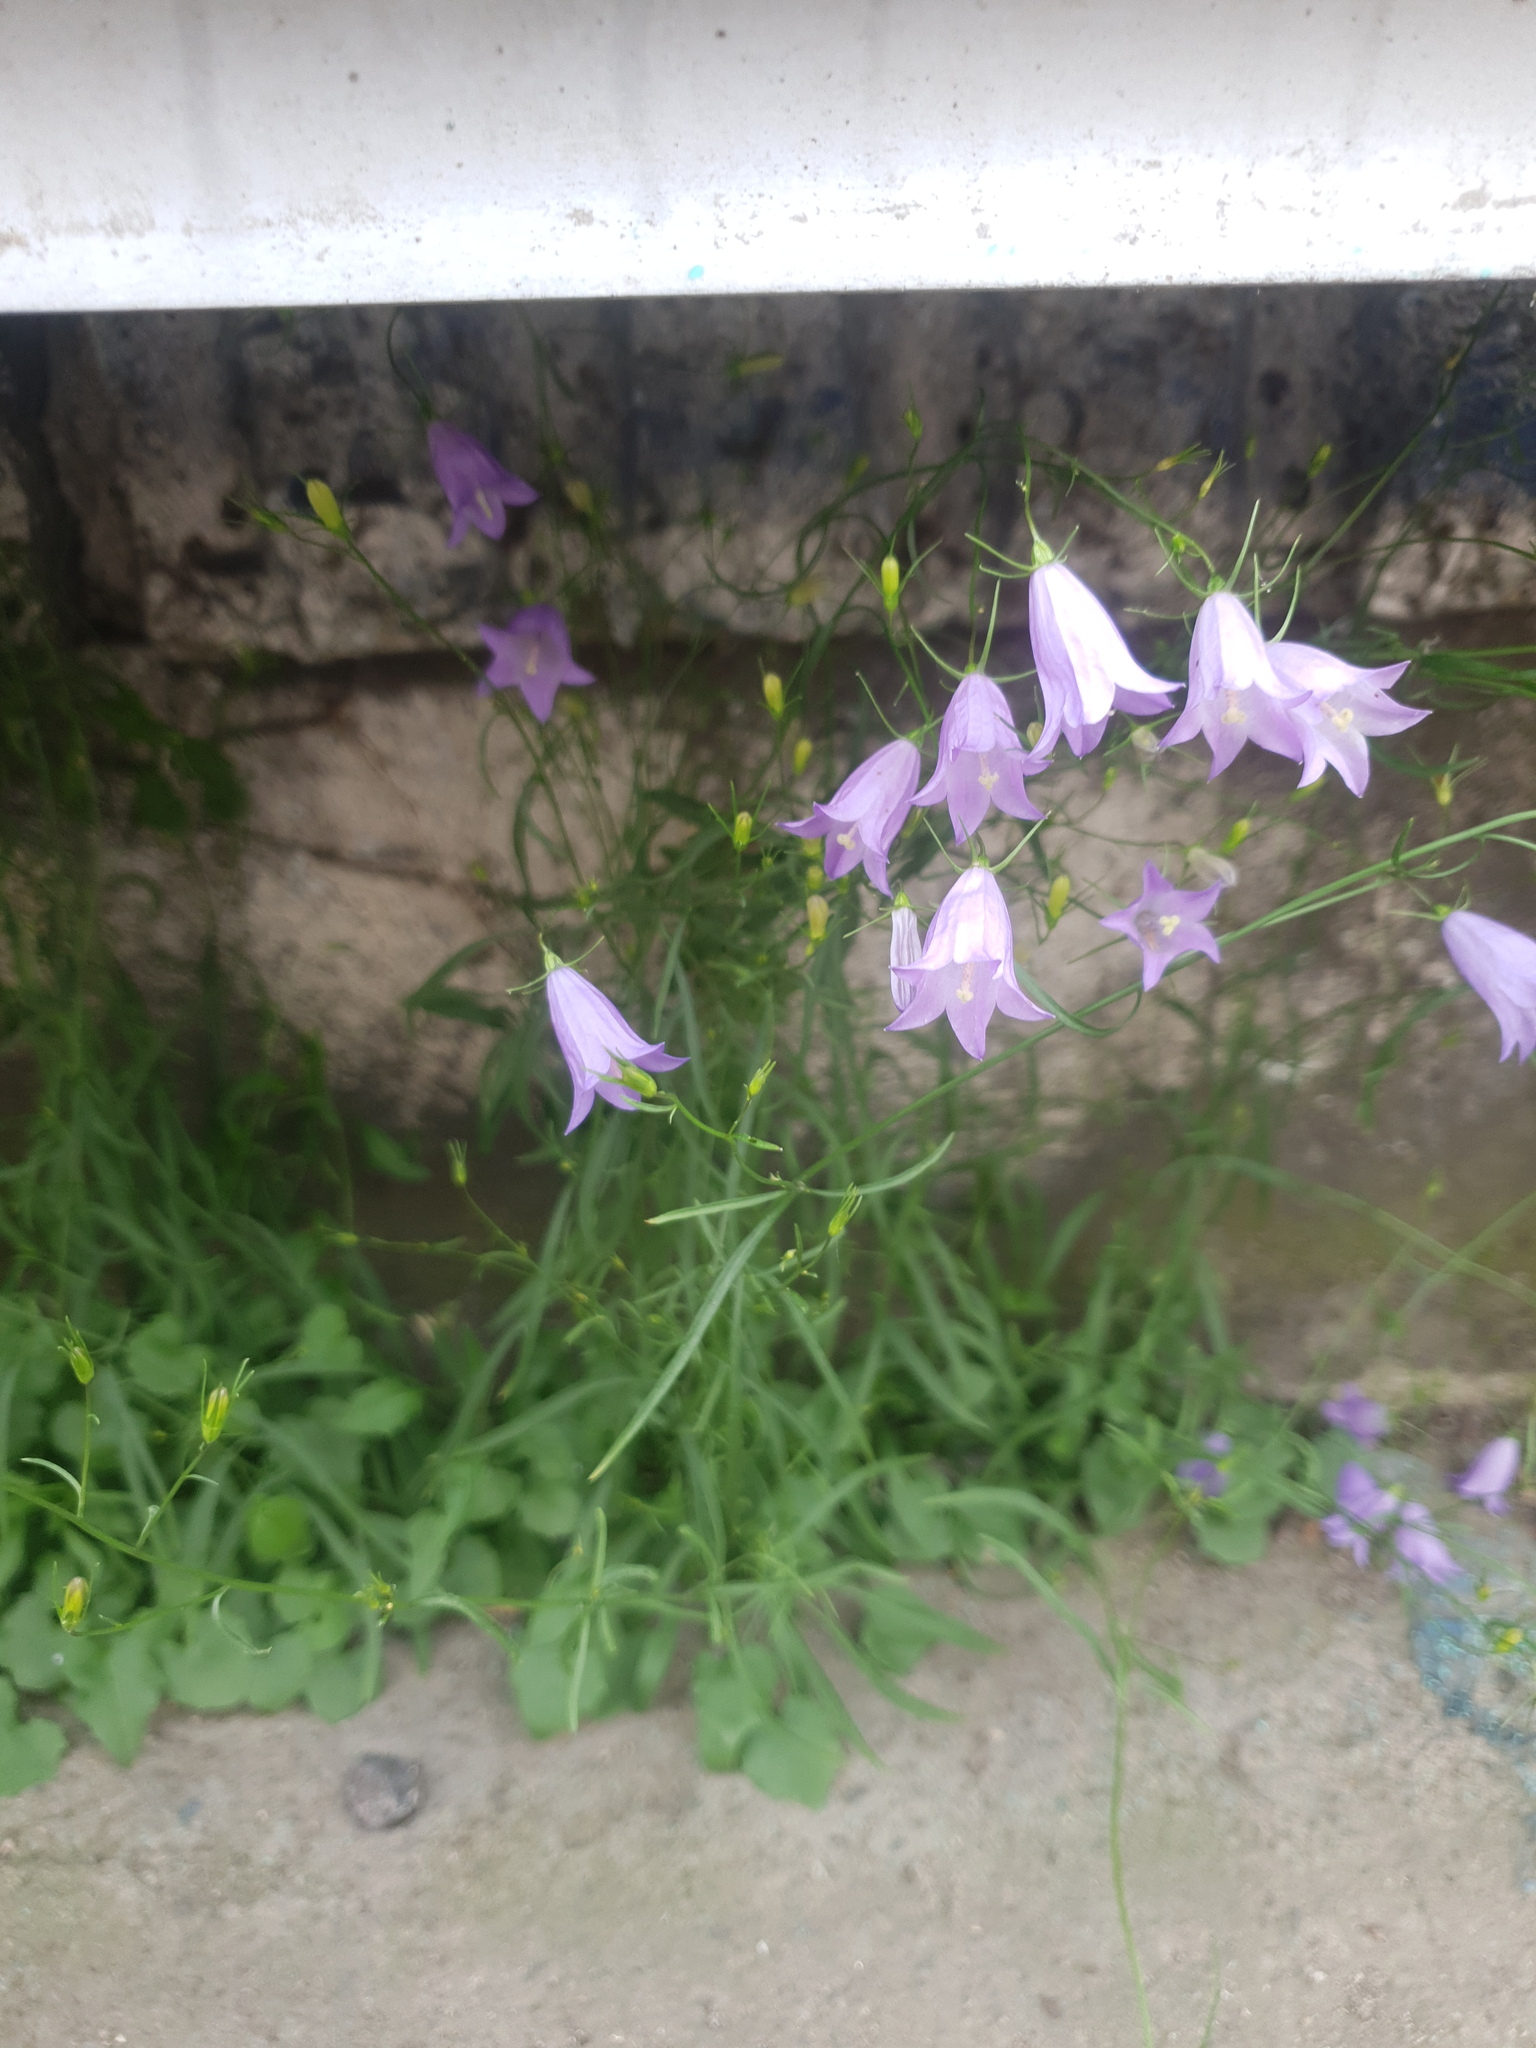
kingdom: Plantae
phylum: Tracheophyta
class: Magnoliopsida
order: Asterales
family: Campanulaceae
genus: Campanula
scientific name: Campanula rotundifolia
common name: Harebell
